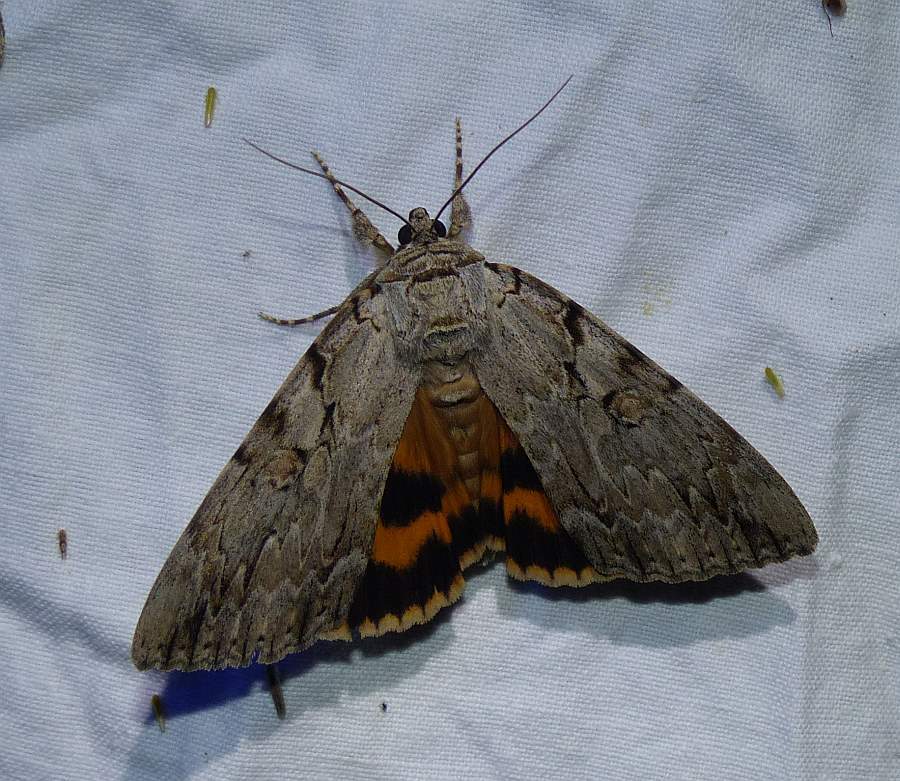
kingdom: Animalia
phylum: Arthropoda
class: Insecta
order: Lepidoptera
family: Erebidae
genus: Catocala
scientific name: Catocala subnata
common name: Youthful underwing
